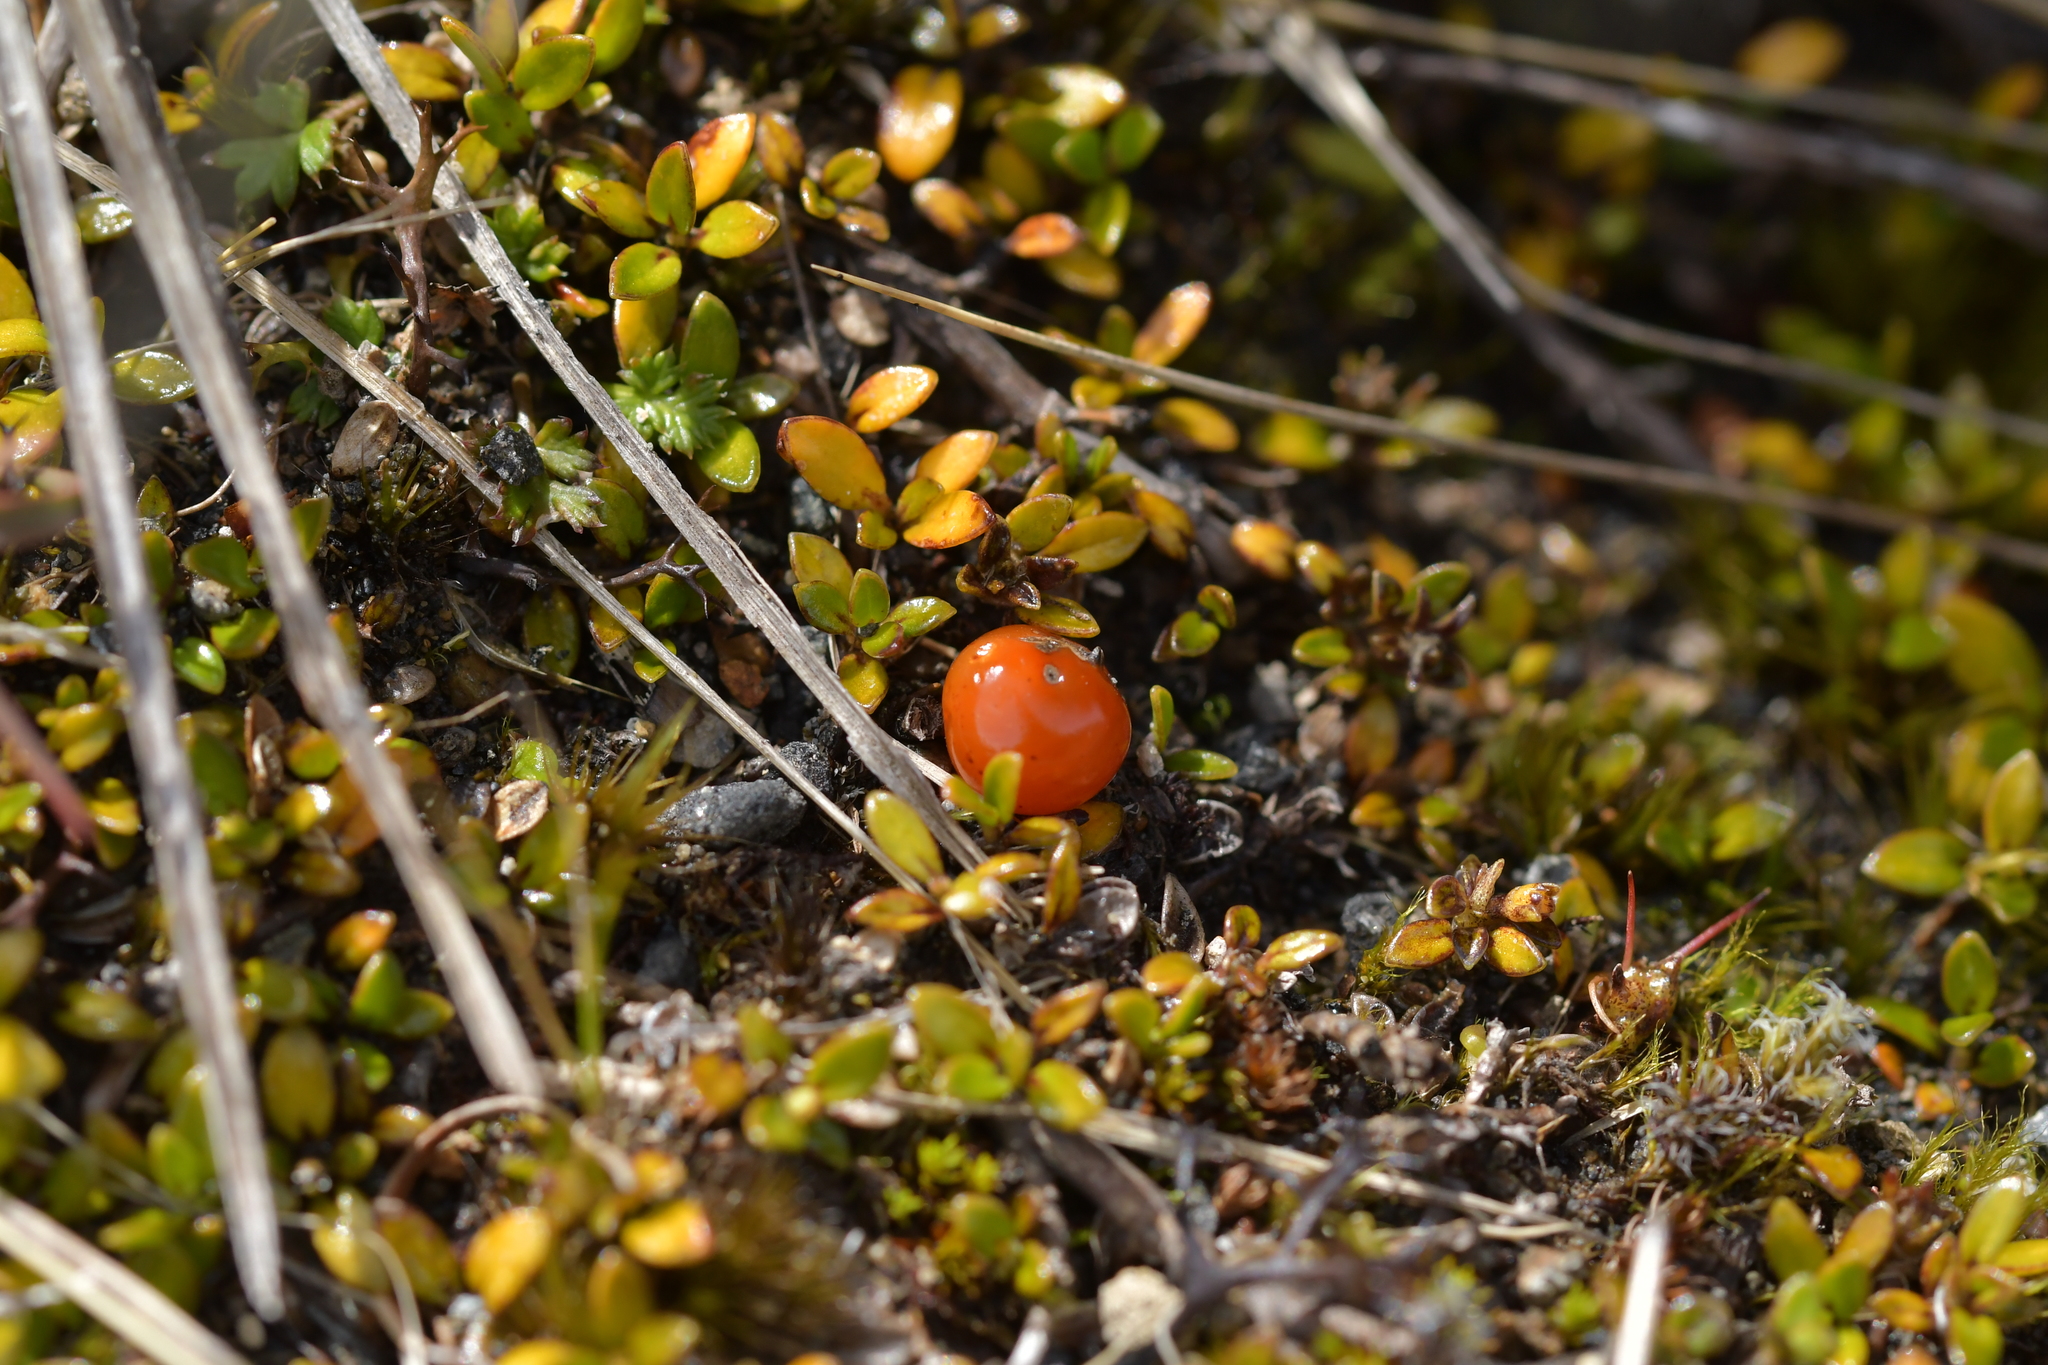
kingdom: Plantae
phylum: Tracheophyta
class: Magnoliopsida
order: Gentianales
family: Rubiaceae
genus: Coprosma
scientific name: Coprosma perpusilla
